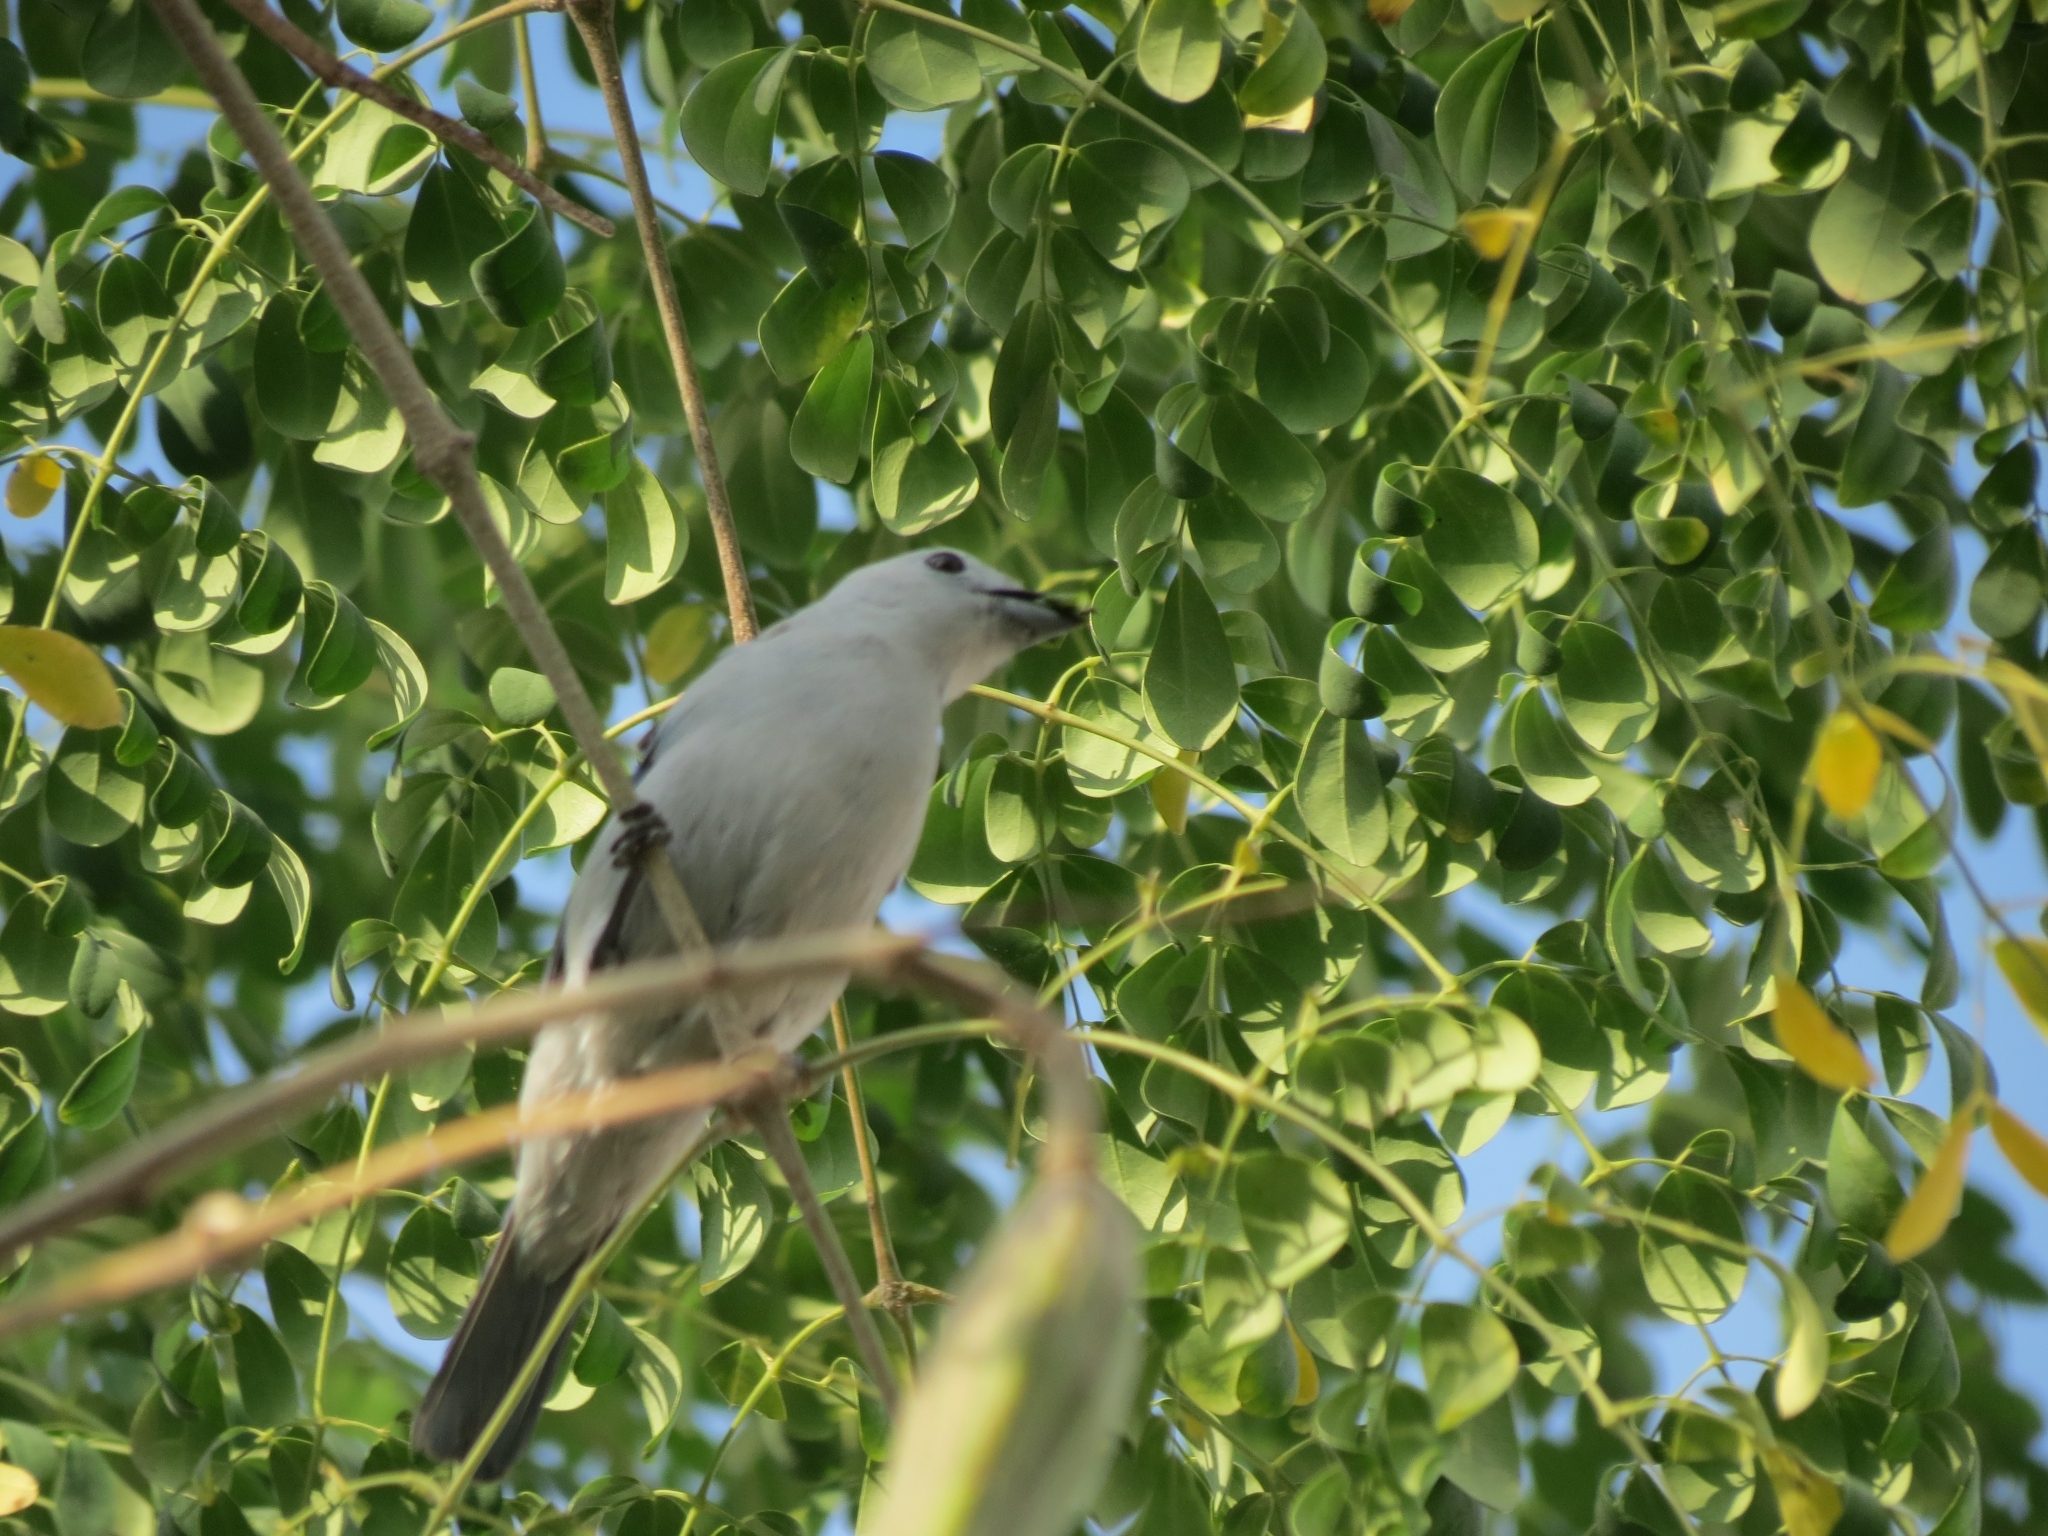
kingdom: Animalia
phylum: Chordata
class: Aves
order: Passeriformes
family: Thraupidae
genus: Thraupis
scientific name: Thraupis episcopus
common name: Blue-grey tanager
